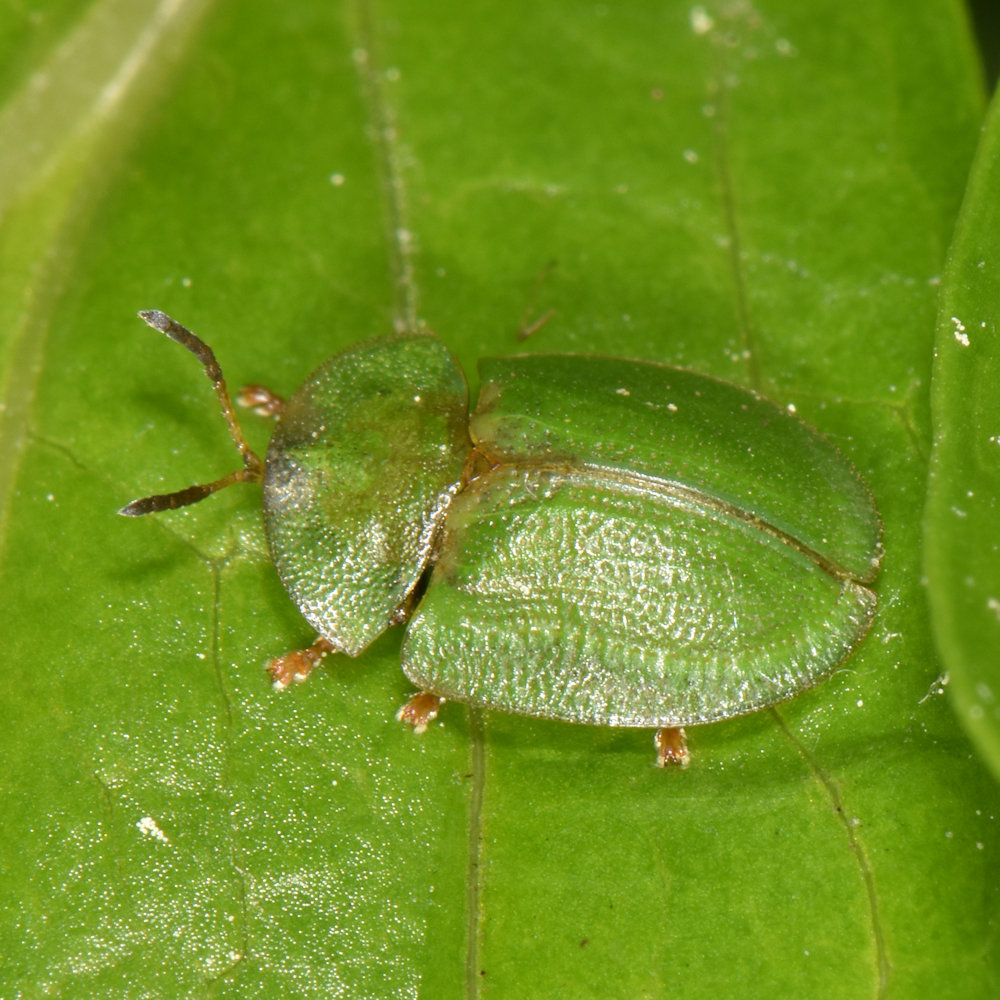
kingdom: Animalia
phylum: Arthropoda
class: Insecta
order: Coleoptera
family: Chrysomelidae
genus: Cassida
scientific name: Cassida rubiginosa
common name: Thistle tortoise beetle
